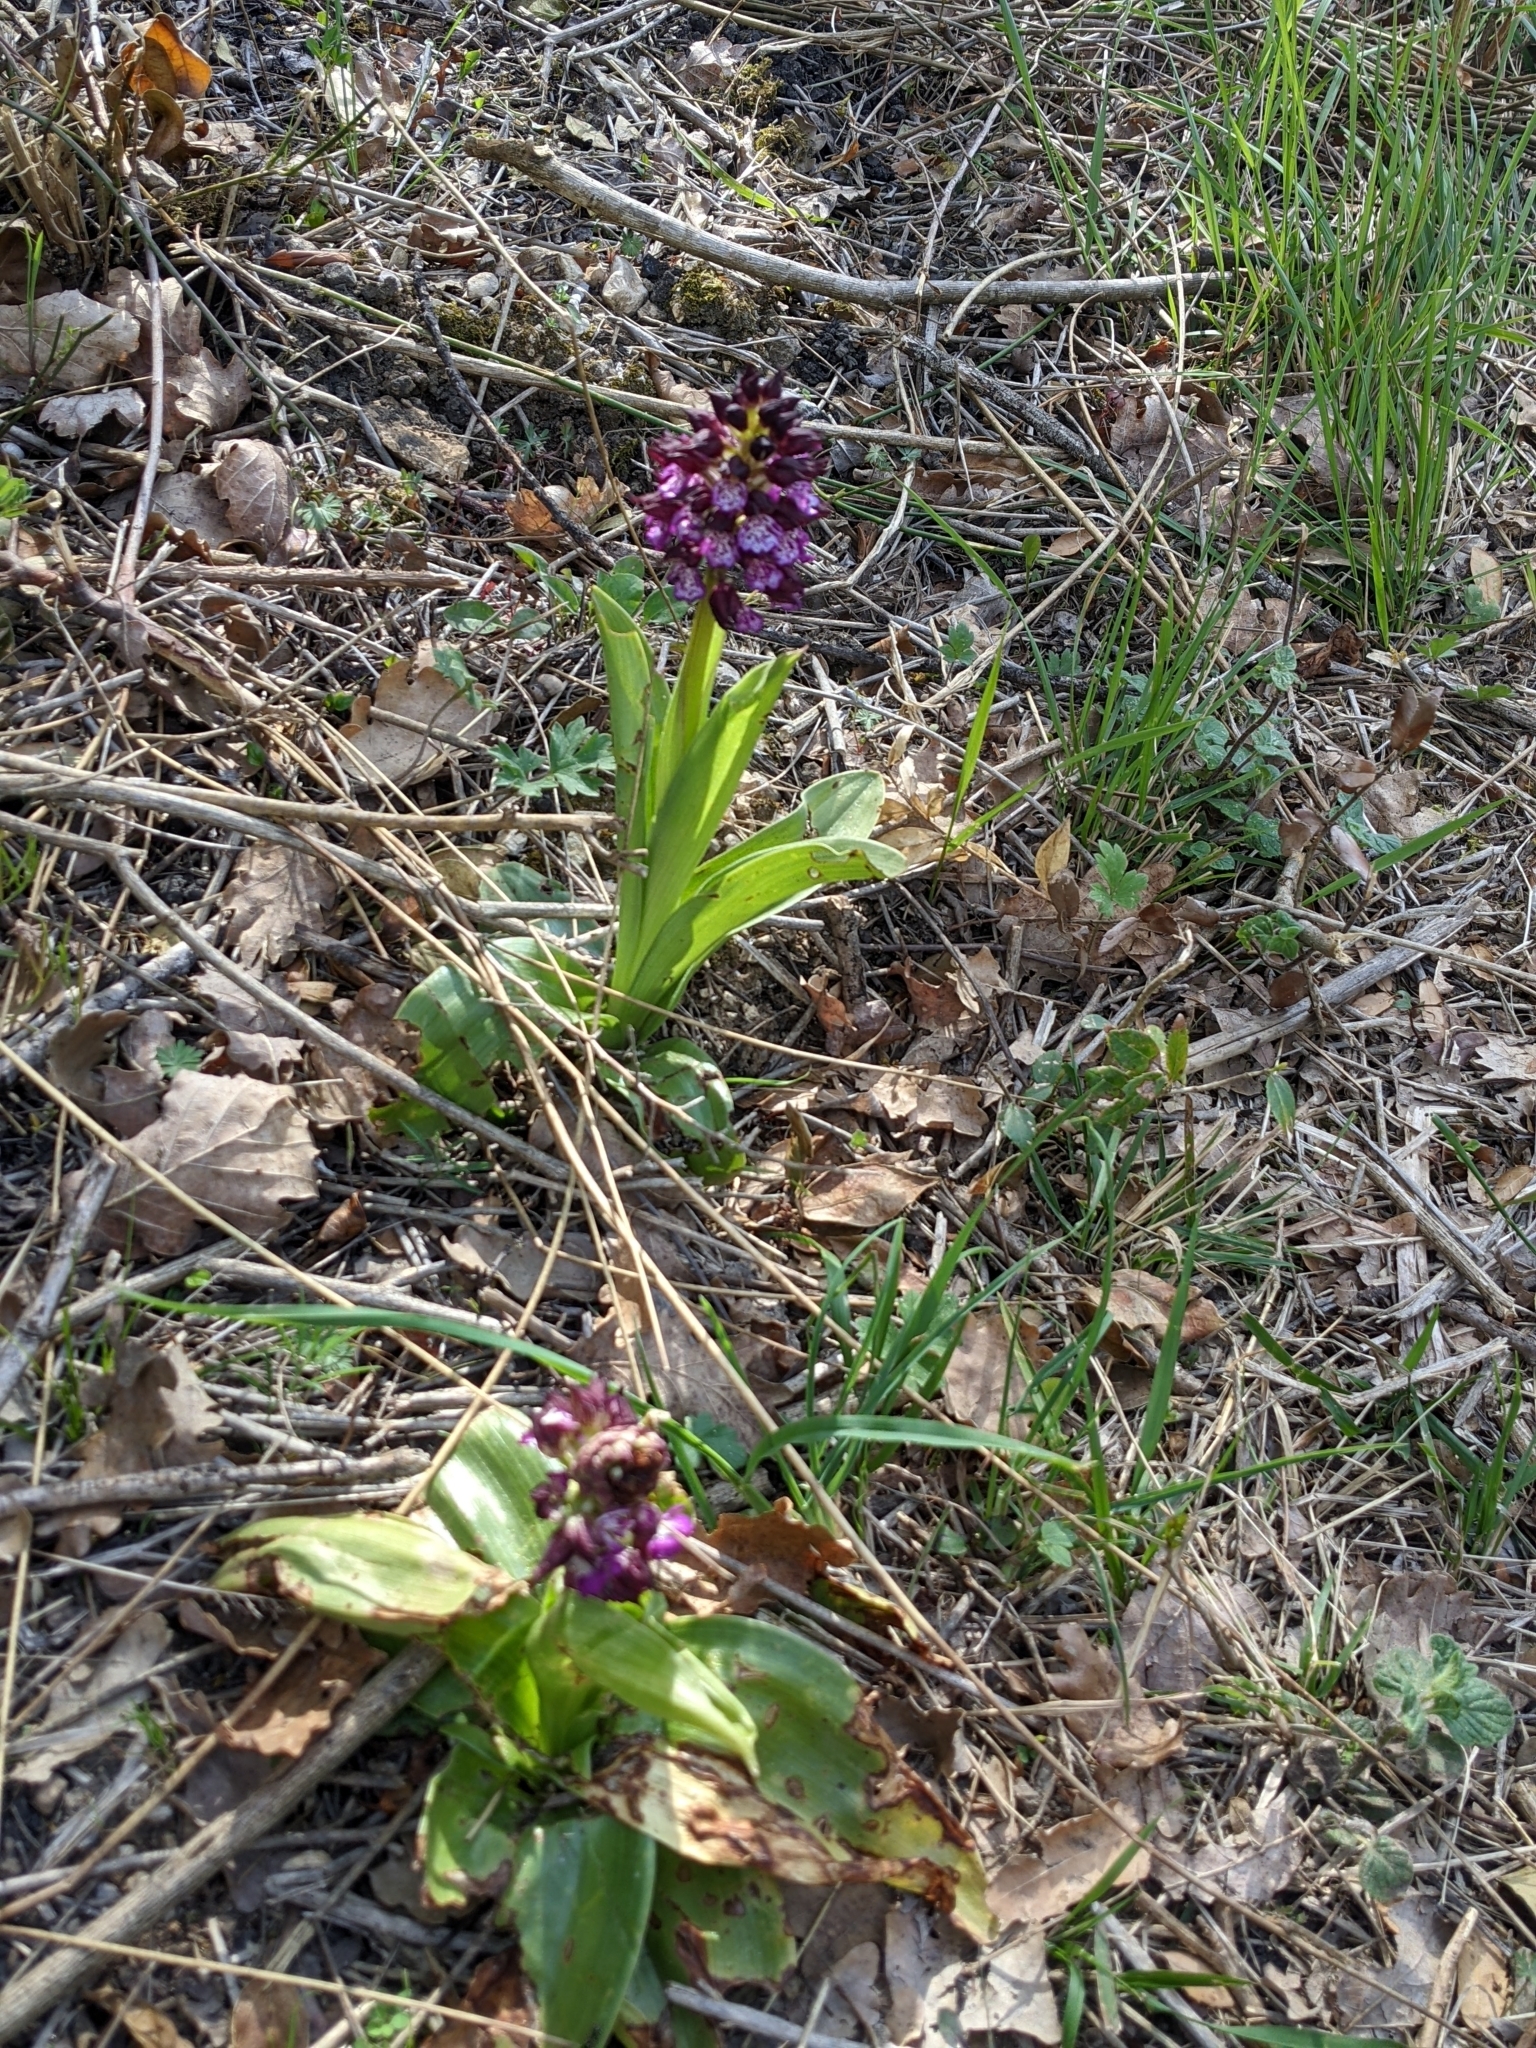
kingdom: Plantae
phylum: Tracheophyta
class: Liliopsida
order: Asparagales
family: Orchidaceae
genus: Orchis
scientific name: Orchis purpurea
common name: Lady orchid
